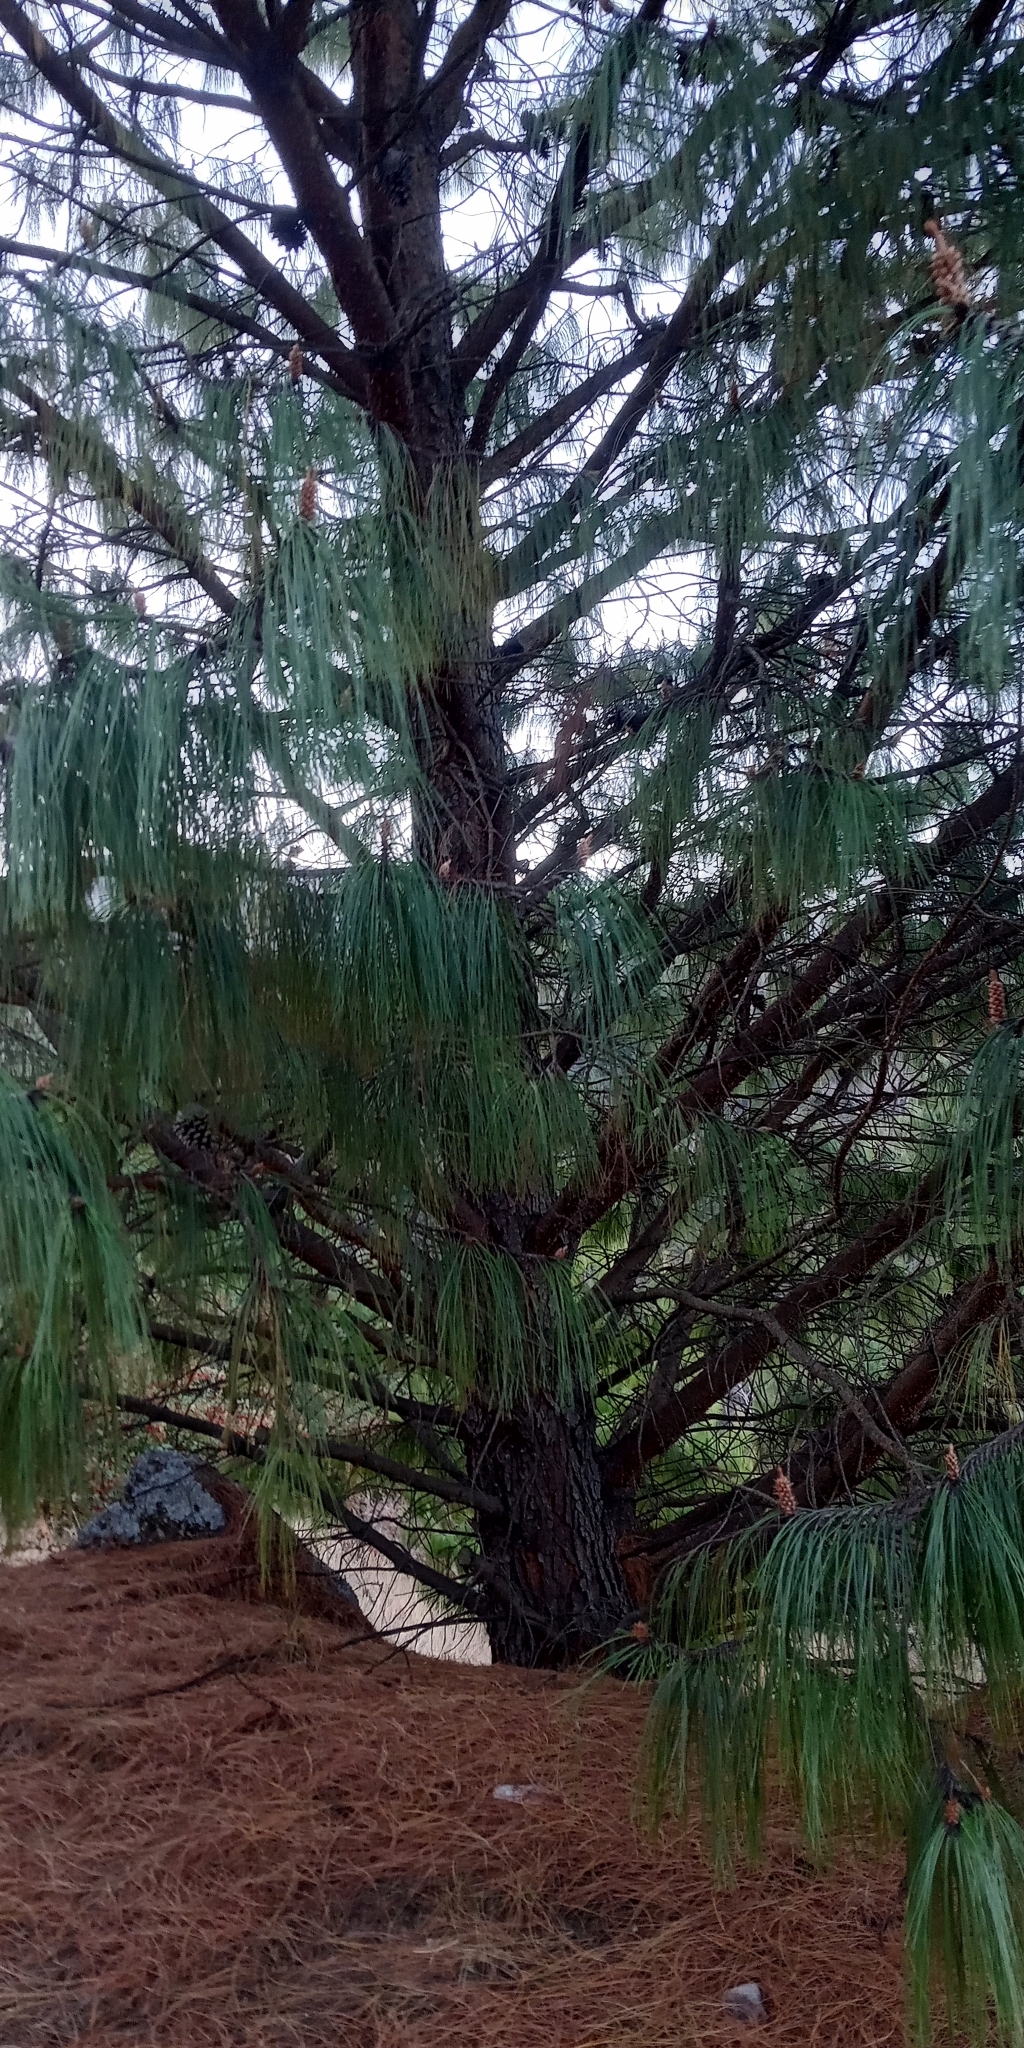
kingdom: Plantae
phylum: Tracheophyta
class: Pinopsida
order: Pinales
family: Pinaceae
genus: Pinus
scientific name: Pinus patula
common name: Mexican weeping pine
